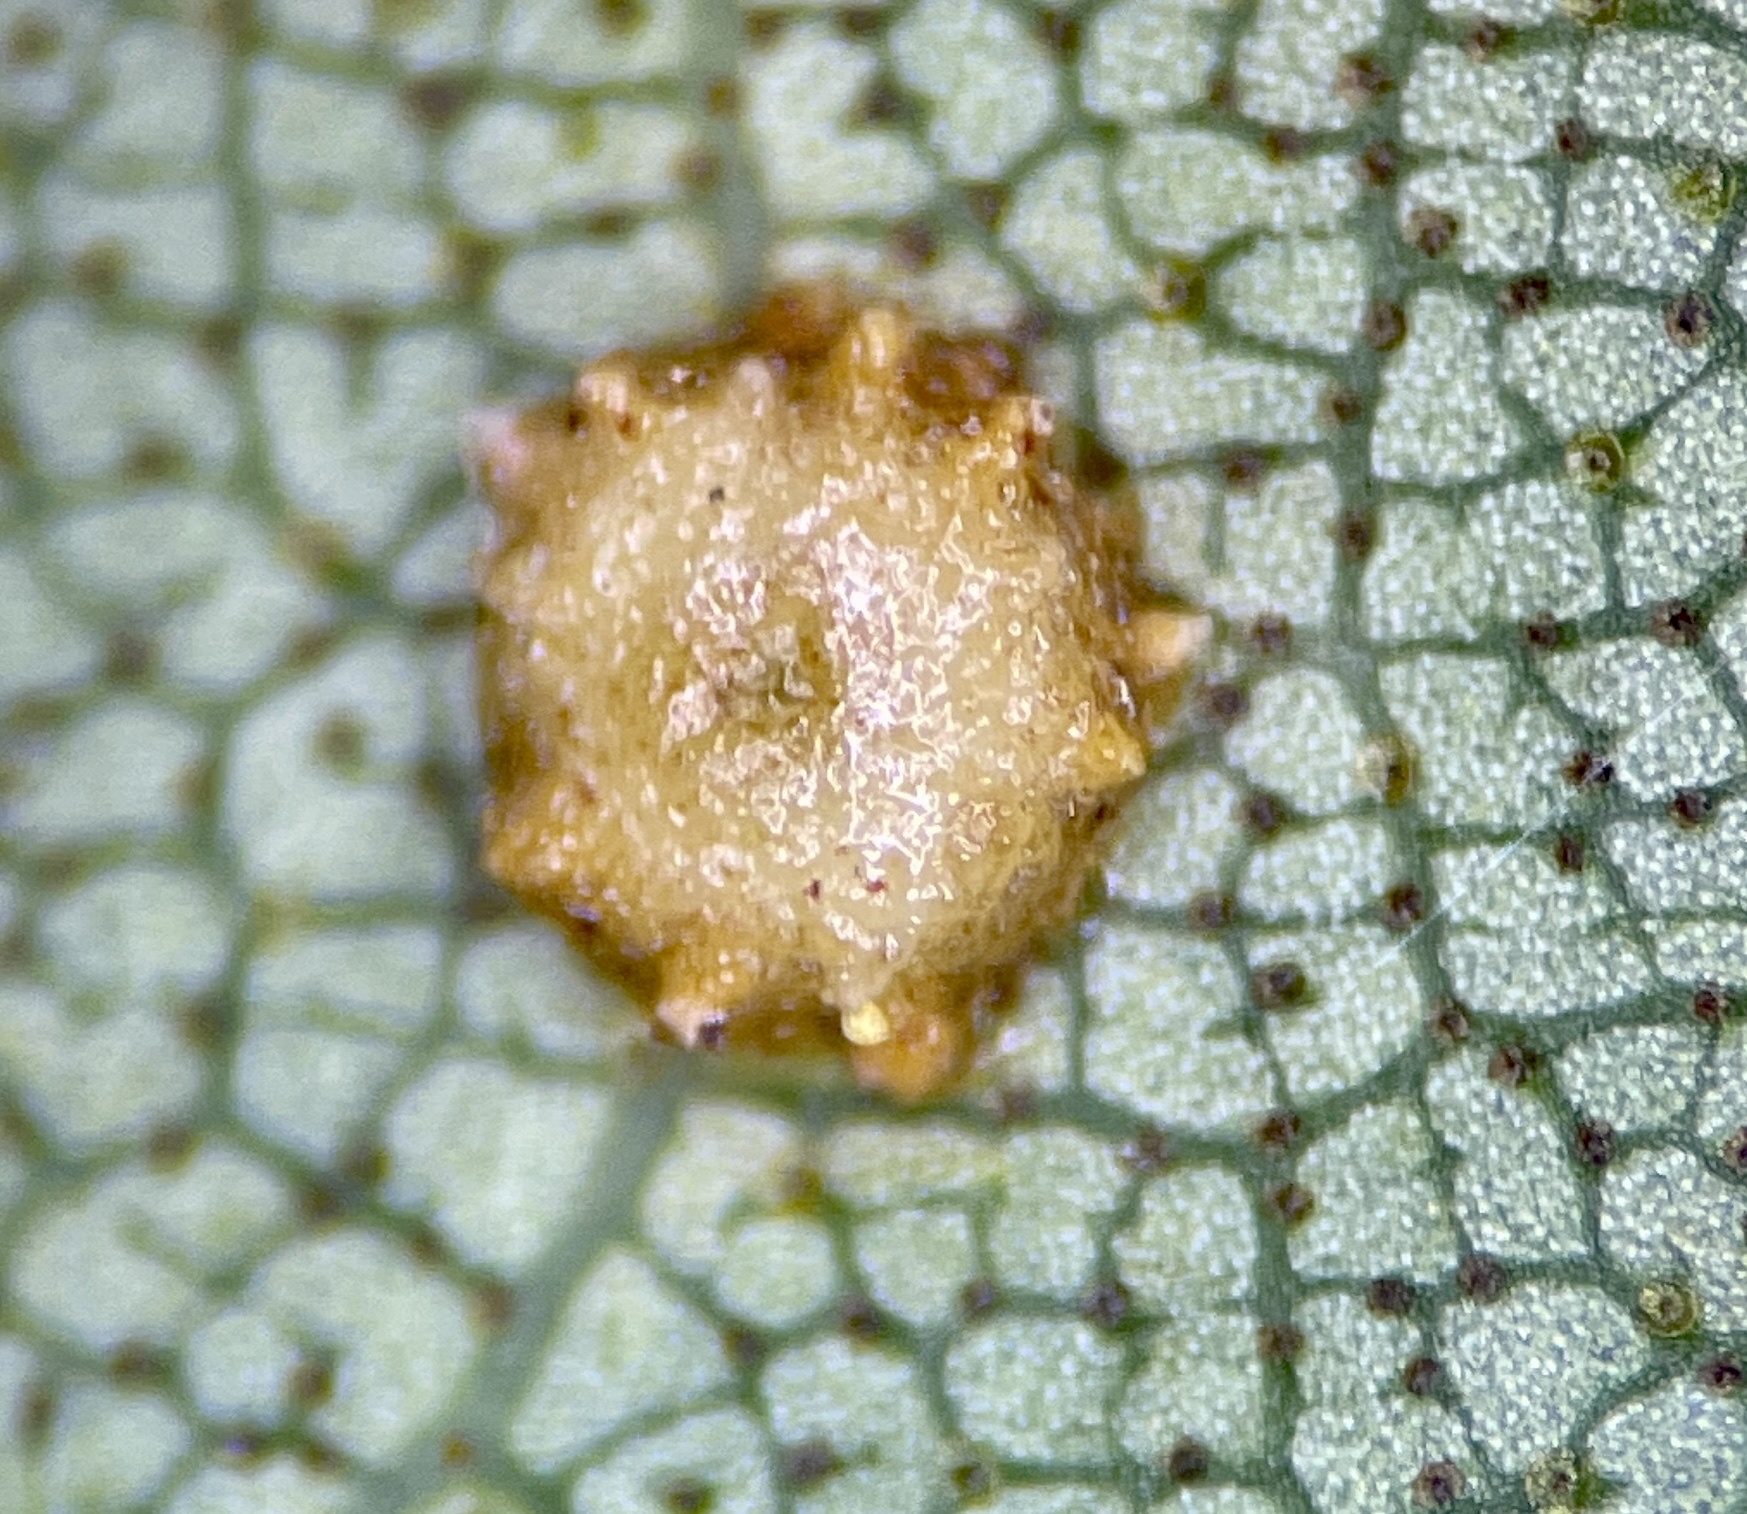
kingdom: Animalia
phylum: Arthropoda
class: Insecta
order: Diptera
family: Cecidomyiidae
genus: Caryomyia
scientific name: Caryomyia tuberculata
